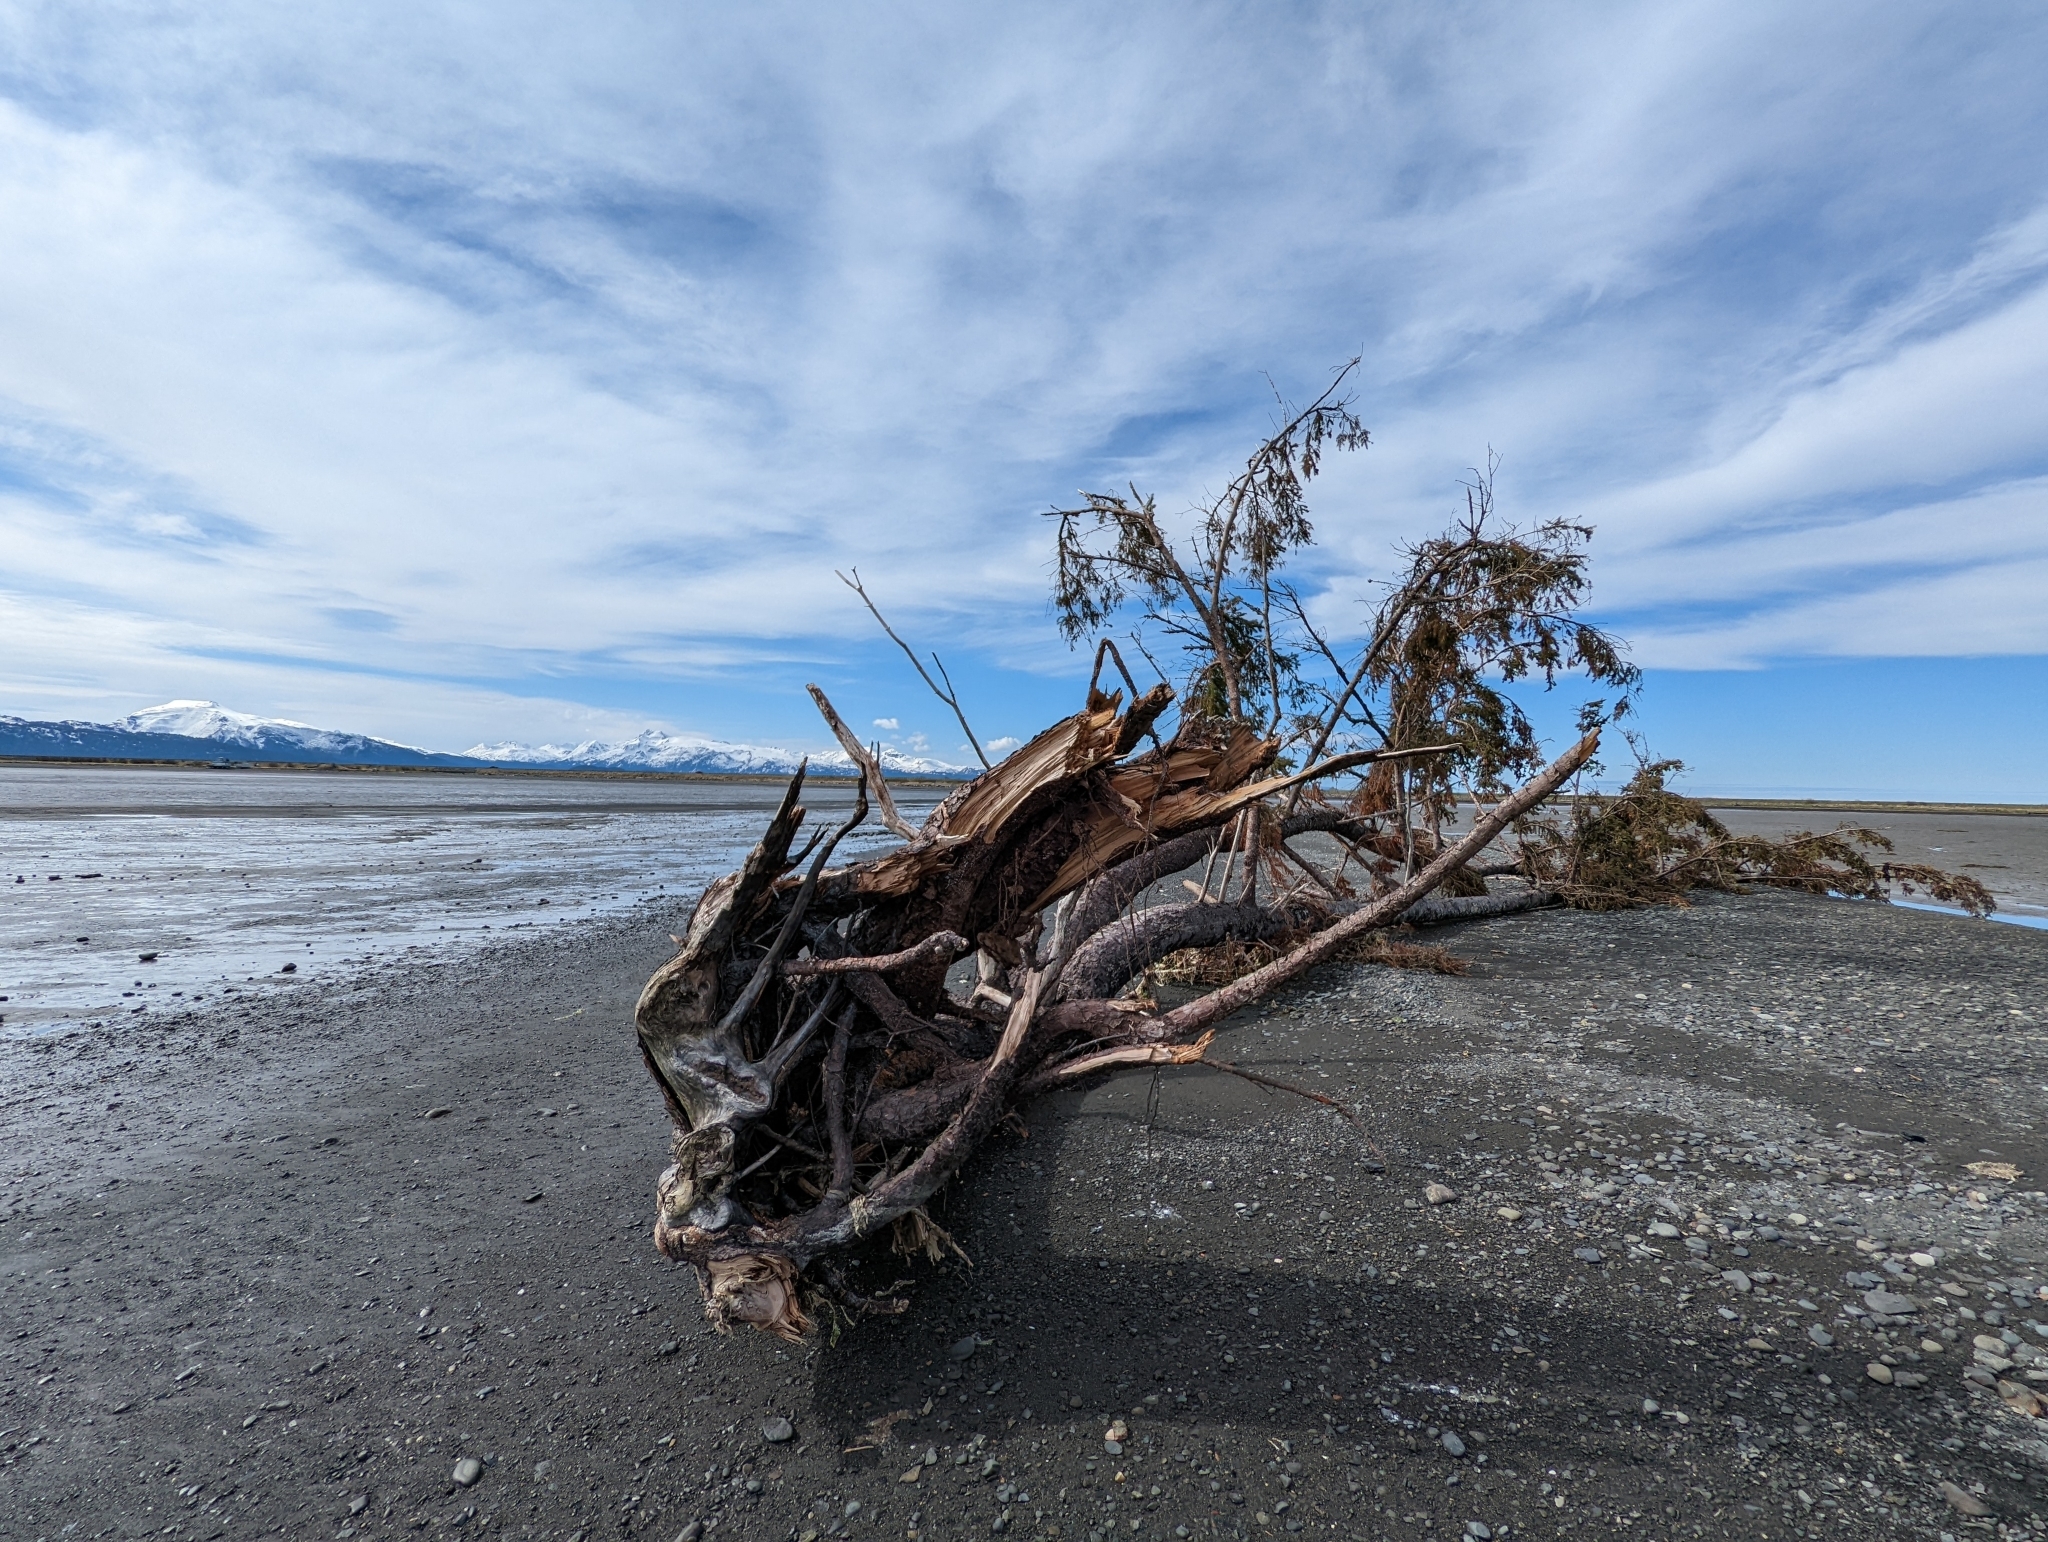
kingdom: Plantae
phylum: Tracheophyta
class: Pinopsida
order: Pinales
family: Pinaceae
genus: Picea
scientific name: Picea sitchensis
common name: Sitka spruce
